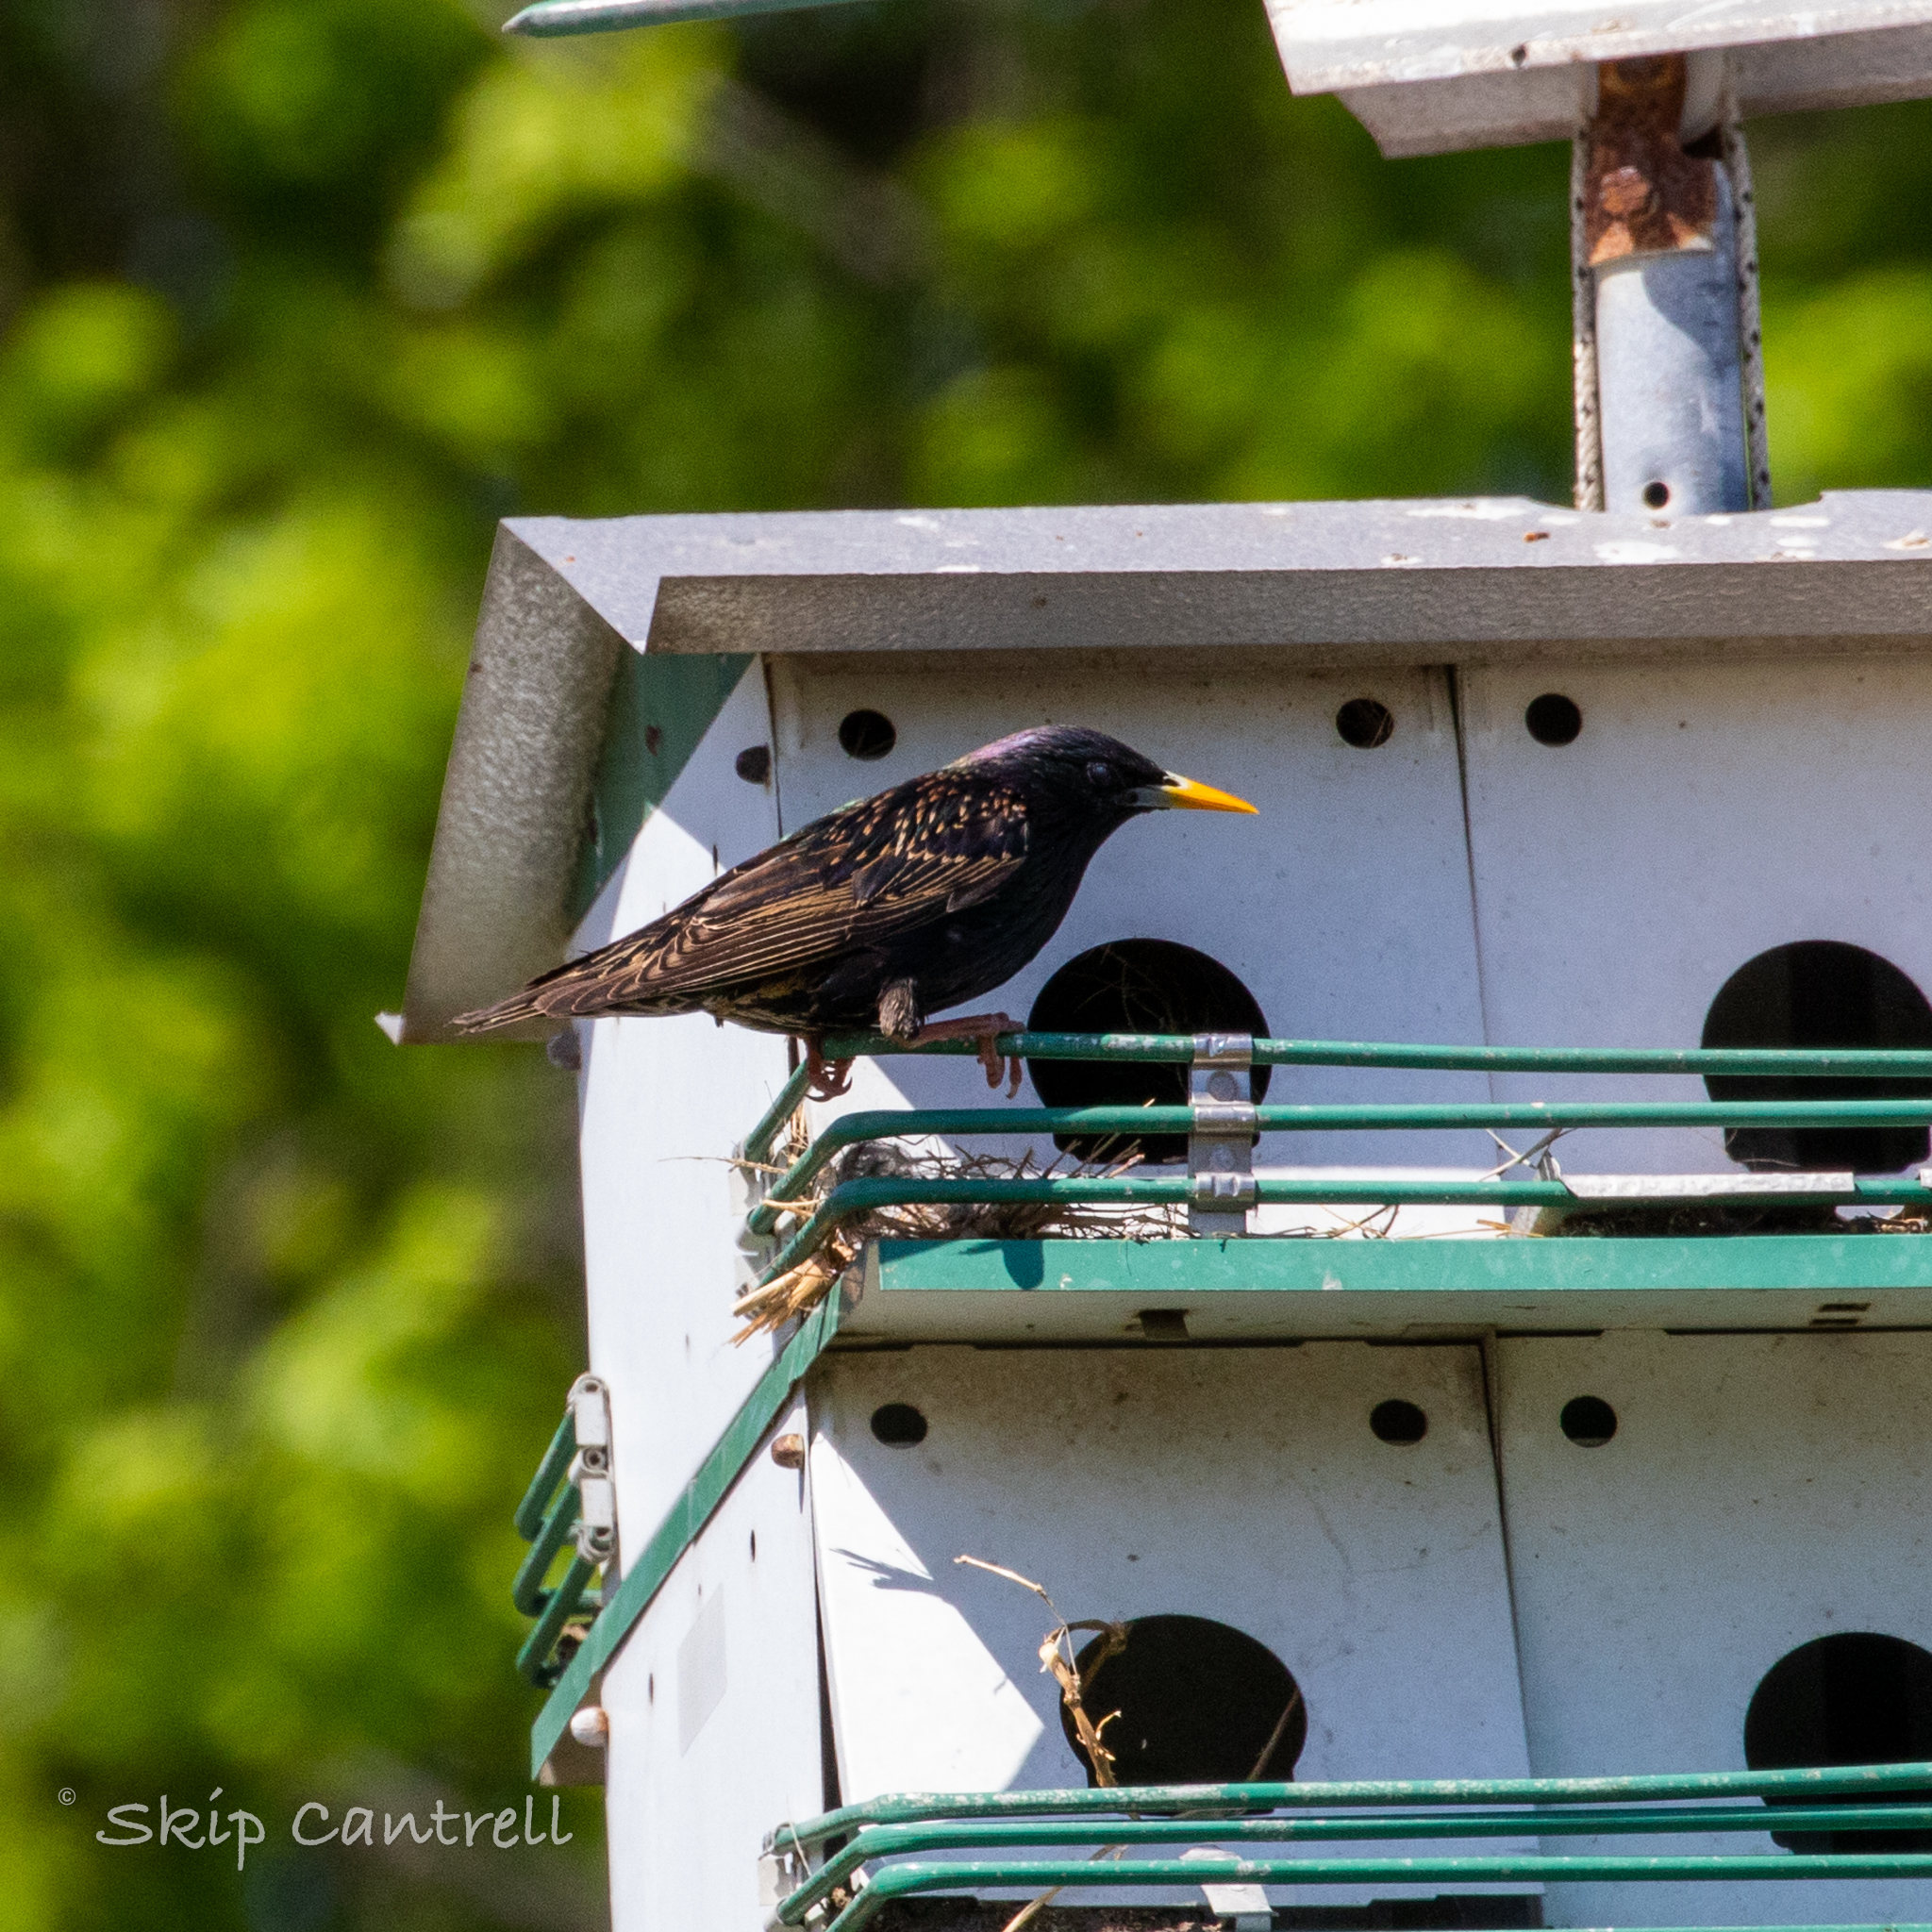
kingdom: Animalia
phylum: Chordata
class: Aves
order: Passeriformes
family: Sturnidae
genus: Sturnus
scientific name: Sturnus vulgaris
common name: Common starling
